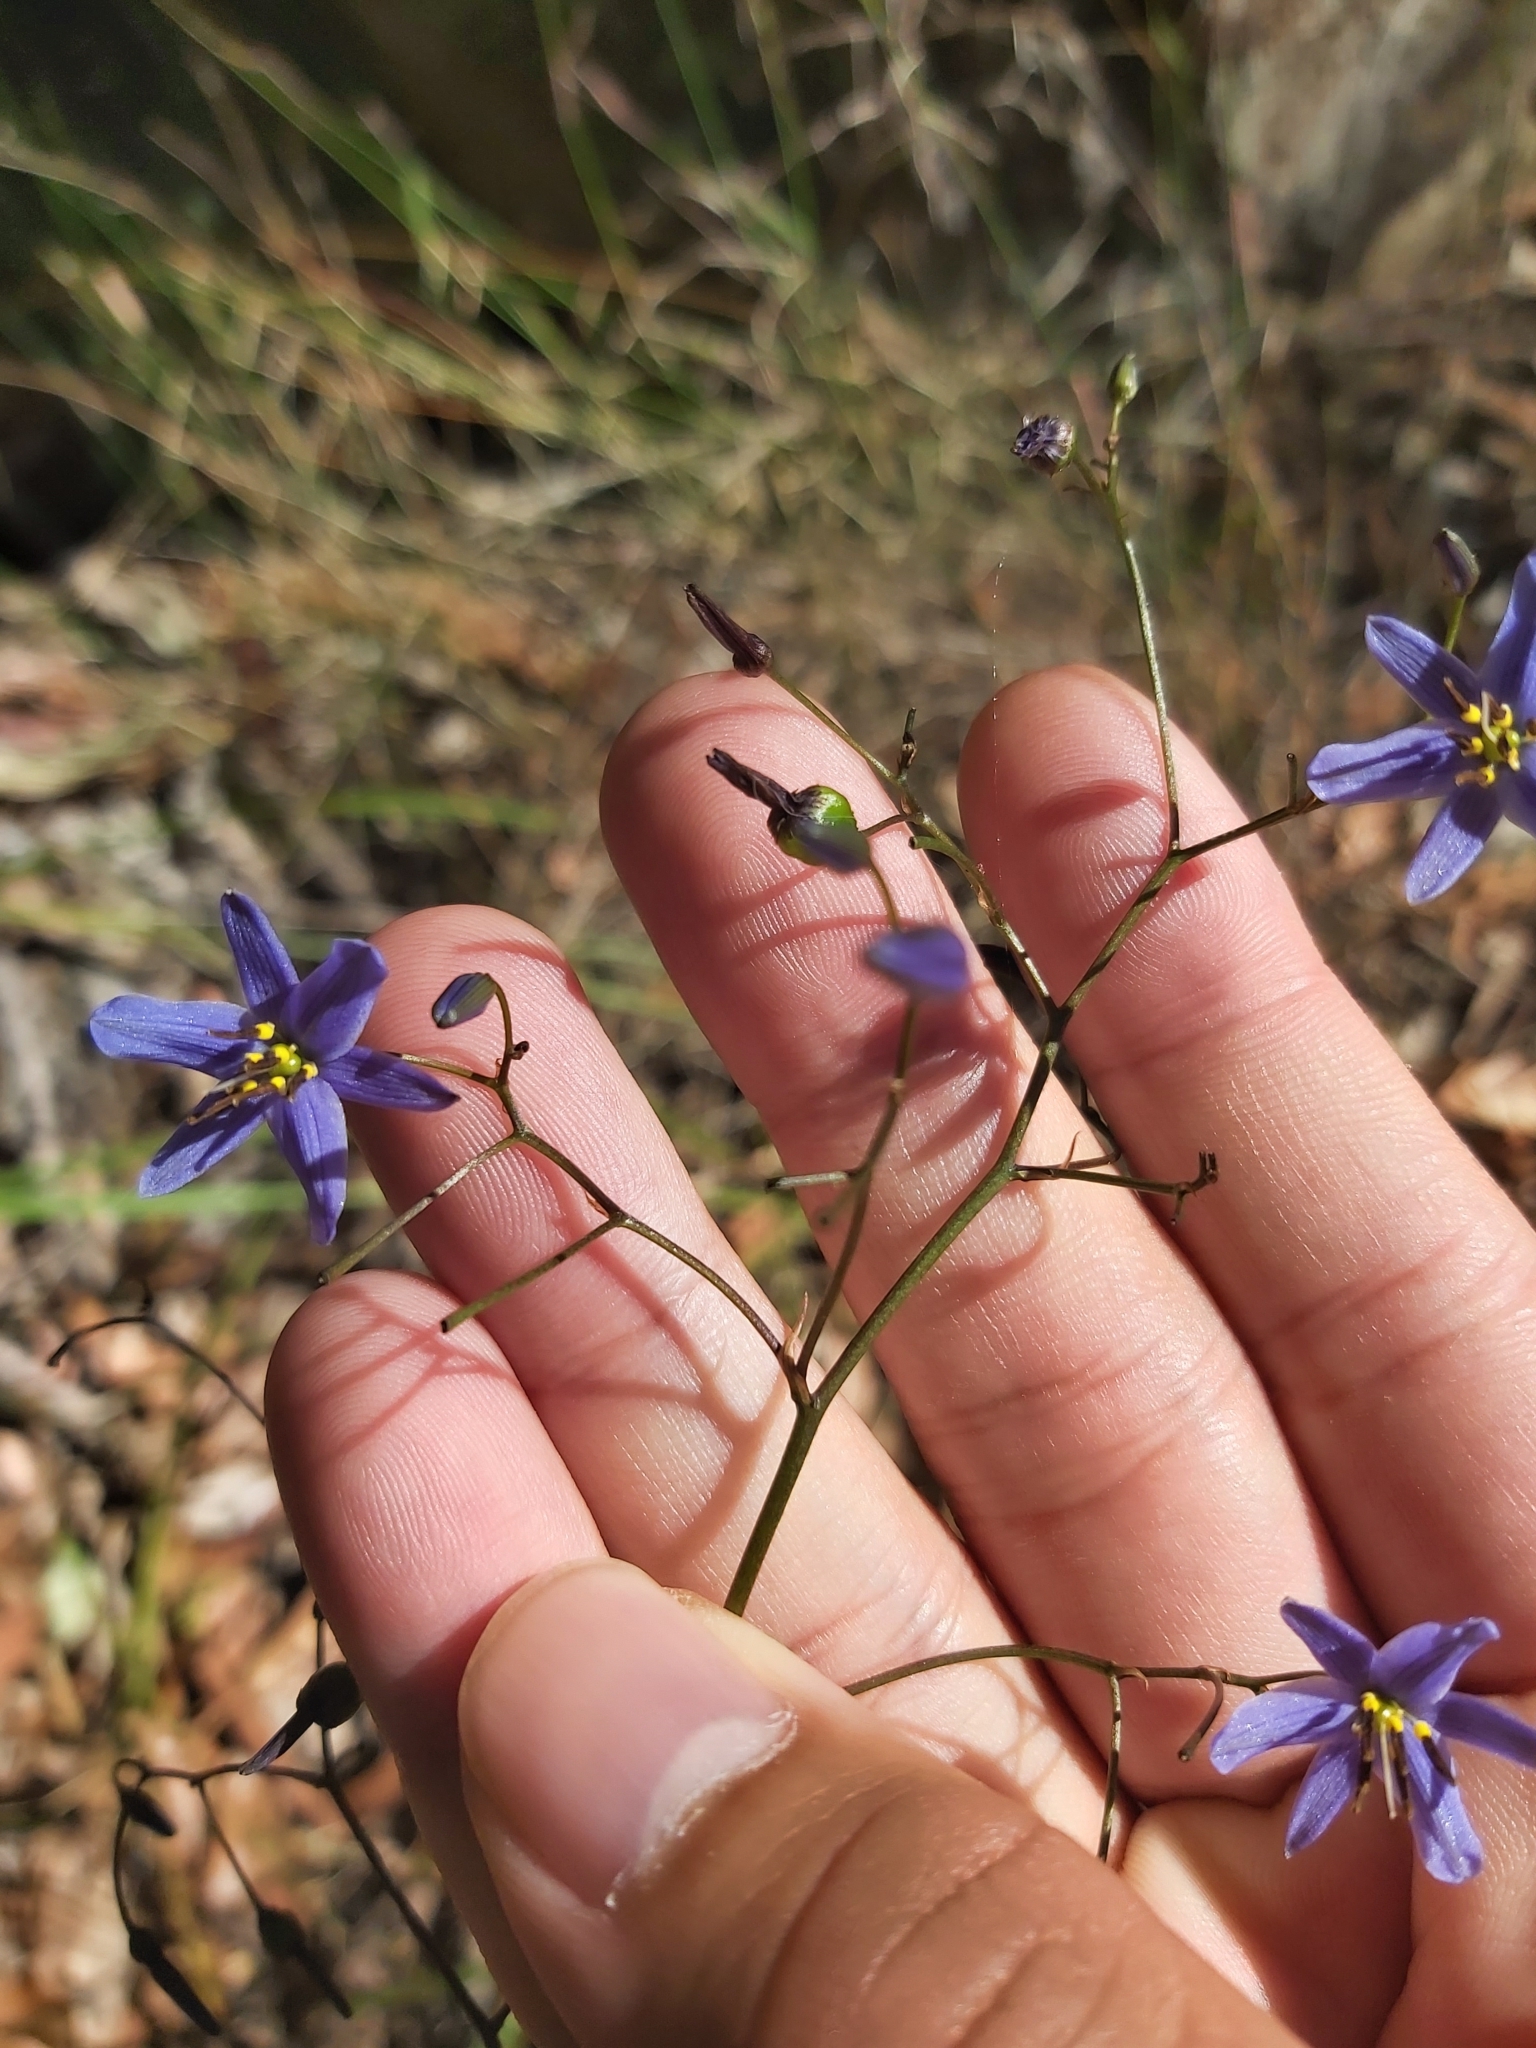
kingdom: Plantae
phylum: Tracheophyta
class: Liliopsida
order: Asparagales
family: Asphodelaceae
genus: Dianella
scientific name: Dianella revoluta
